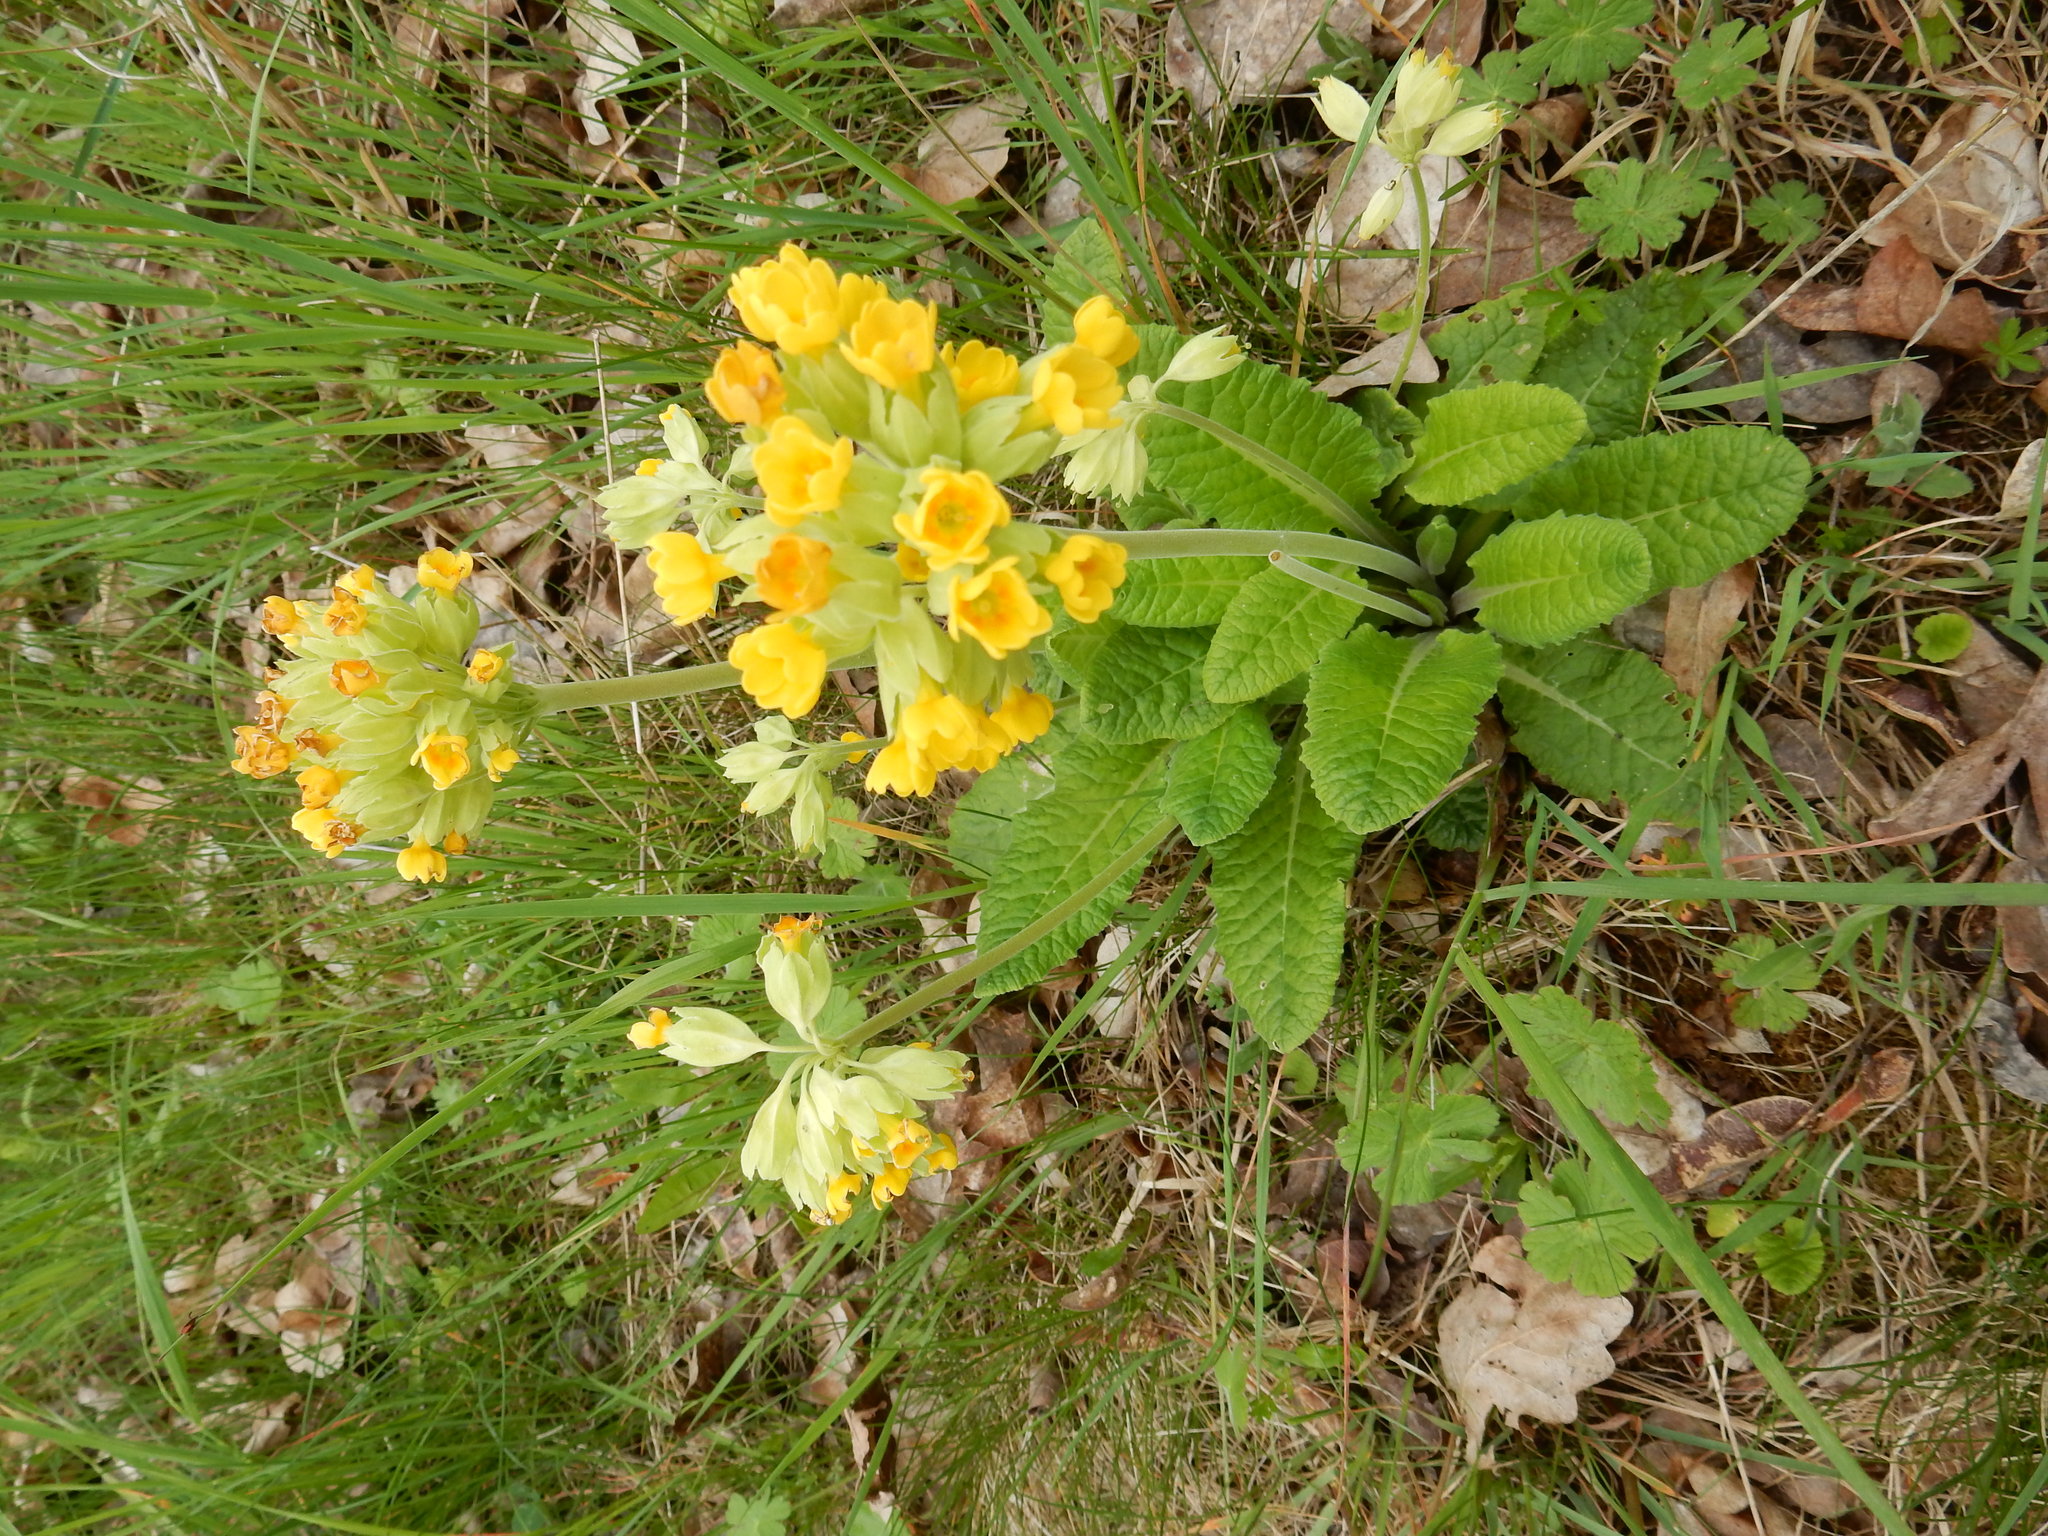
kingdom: Plantae
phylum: Tracheophyta
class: Magnoliopsida
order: Ericales
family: Primulaceae
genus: Primula
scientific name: Primula veris
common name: Cowslip
